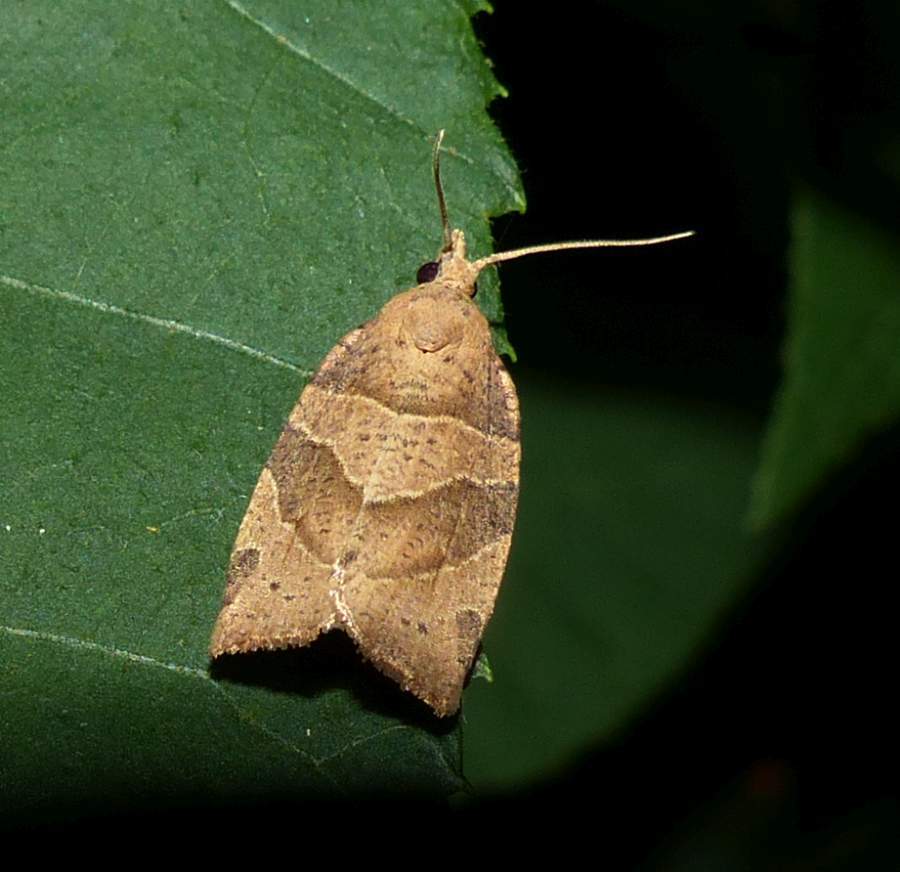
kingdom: Animalia
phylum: Arthropoda
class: Insecta
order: Lepidoptera
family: Tortricidae
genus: Pandemis
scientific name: Pandemis lamprosana
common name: Woodgrain leafroller moth
